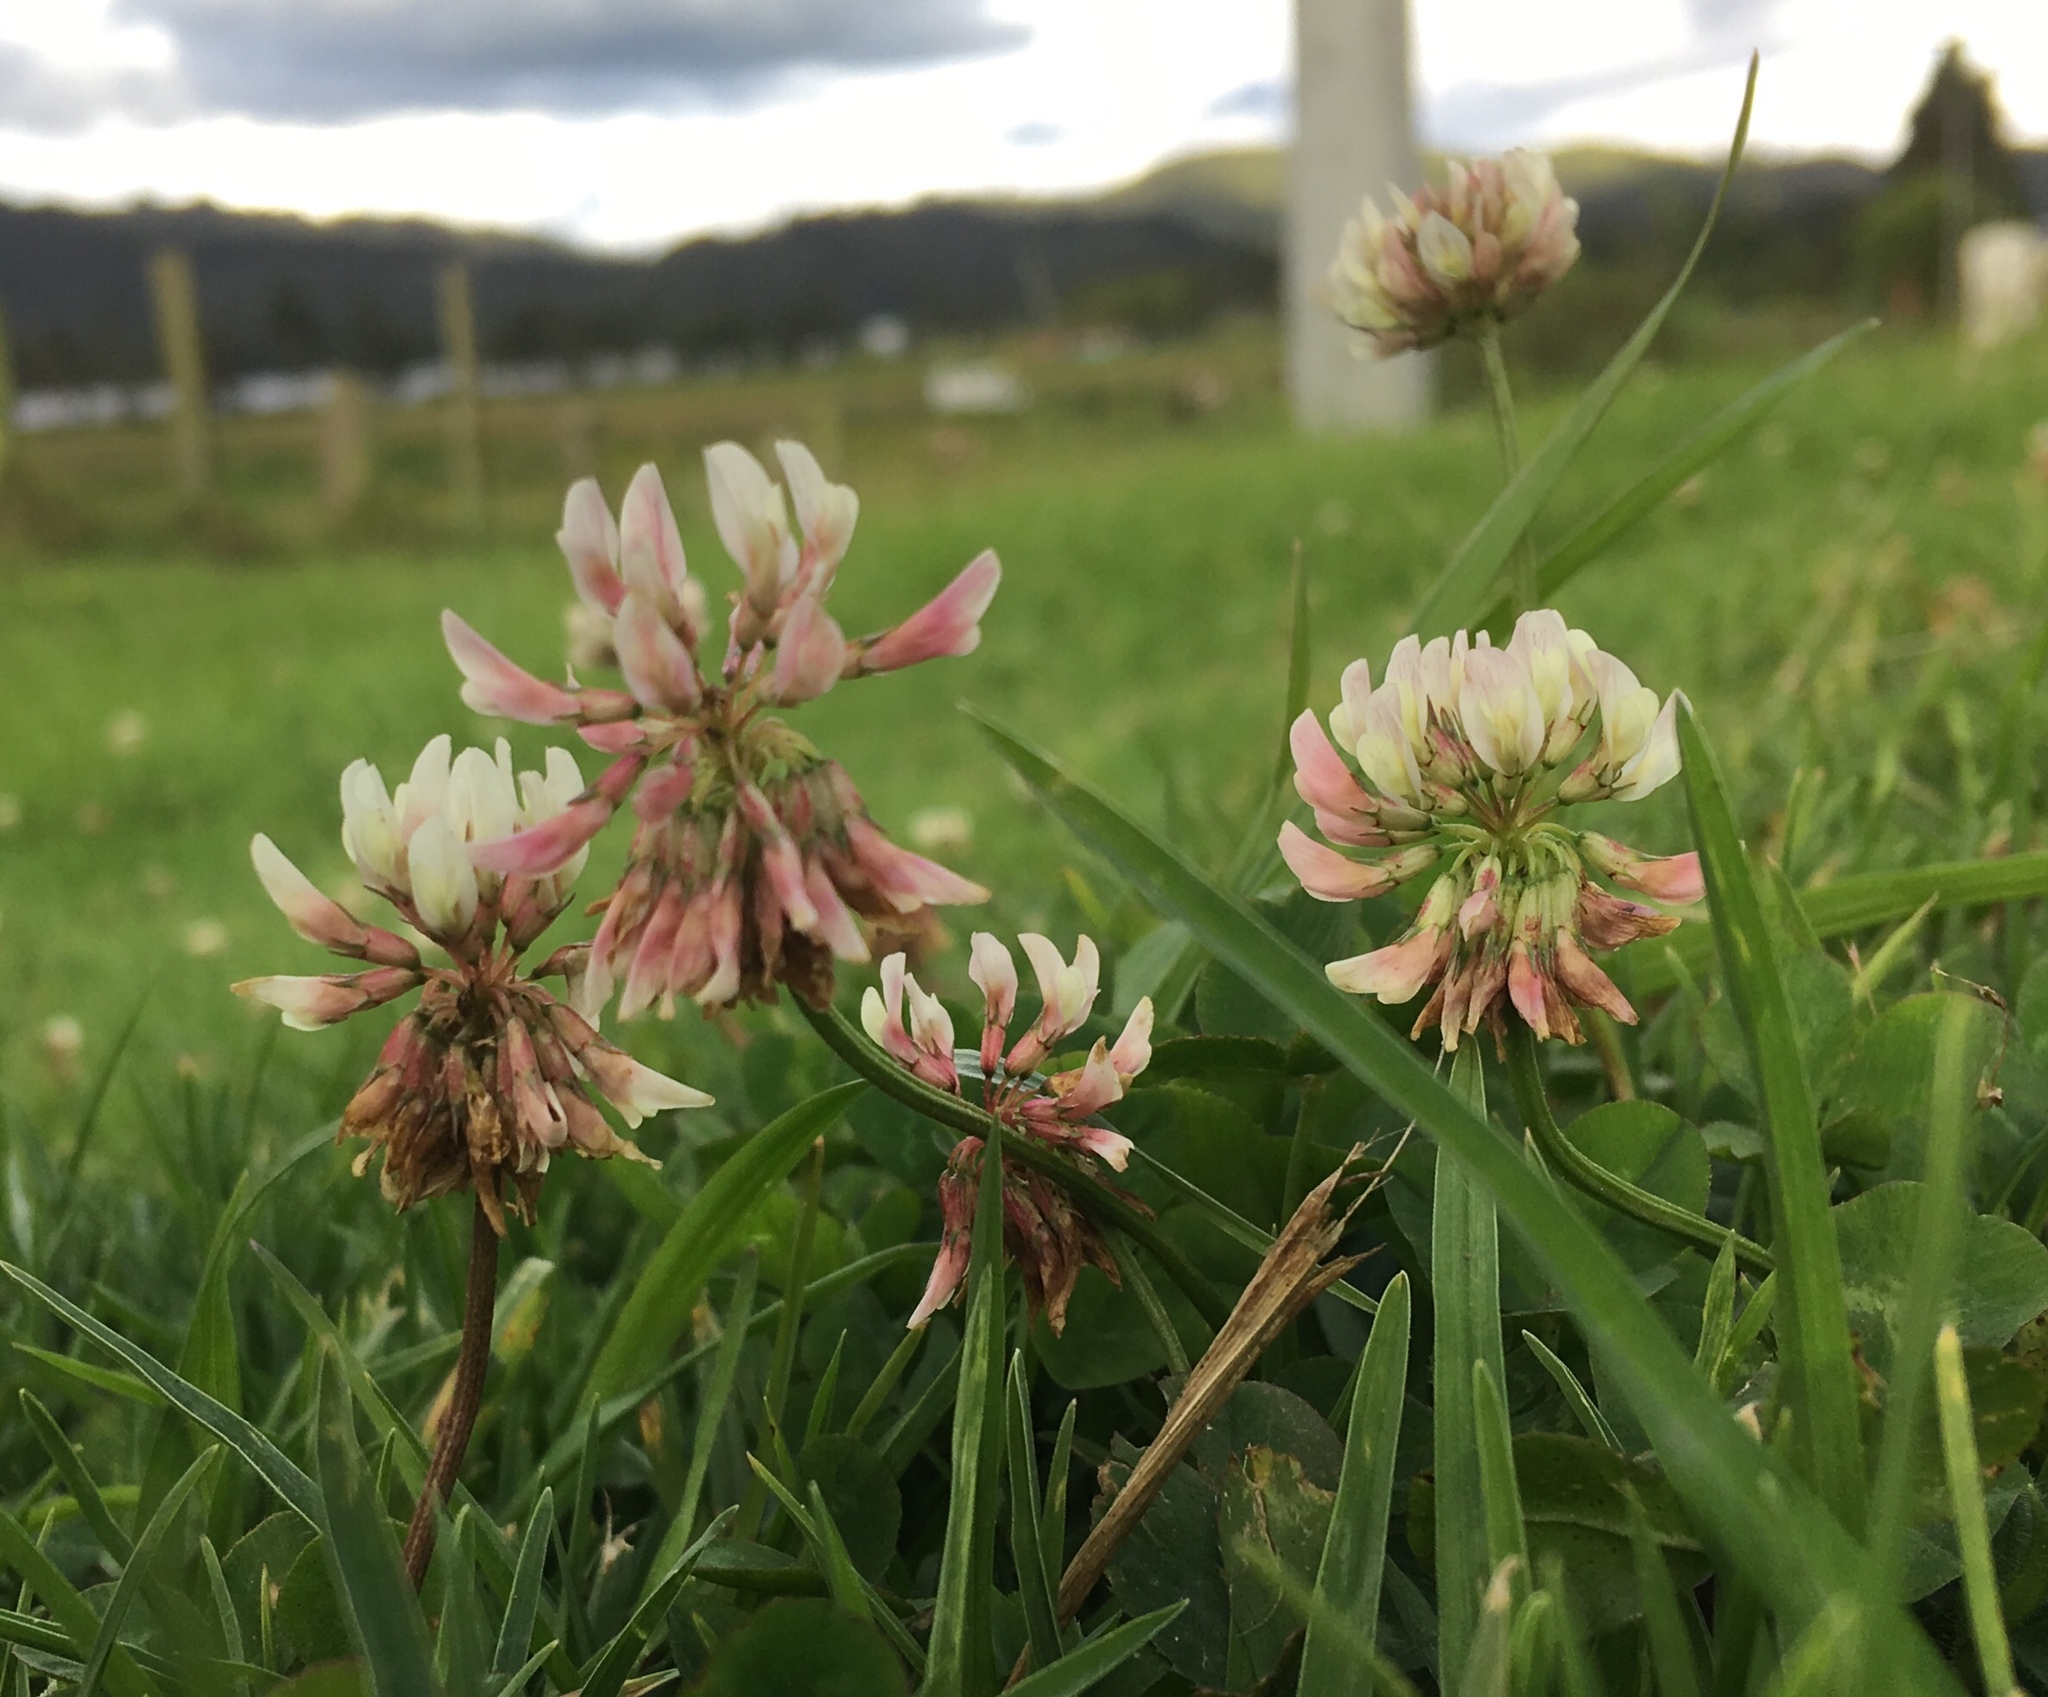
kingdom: Plantae
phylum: Tracheophyta
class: Magnoliopsida
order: Fabales
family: Fabaceae
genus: Trifolium
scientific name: Trifolium repens
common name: White clover
